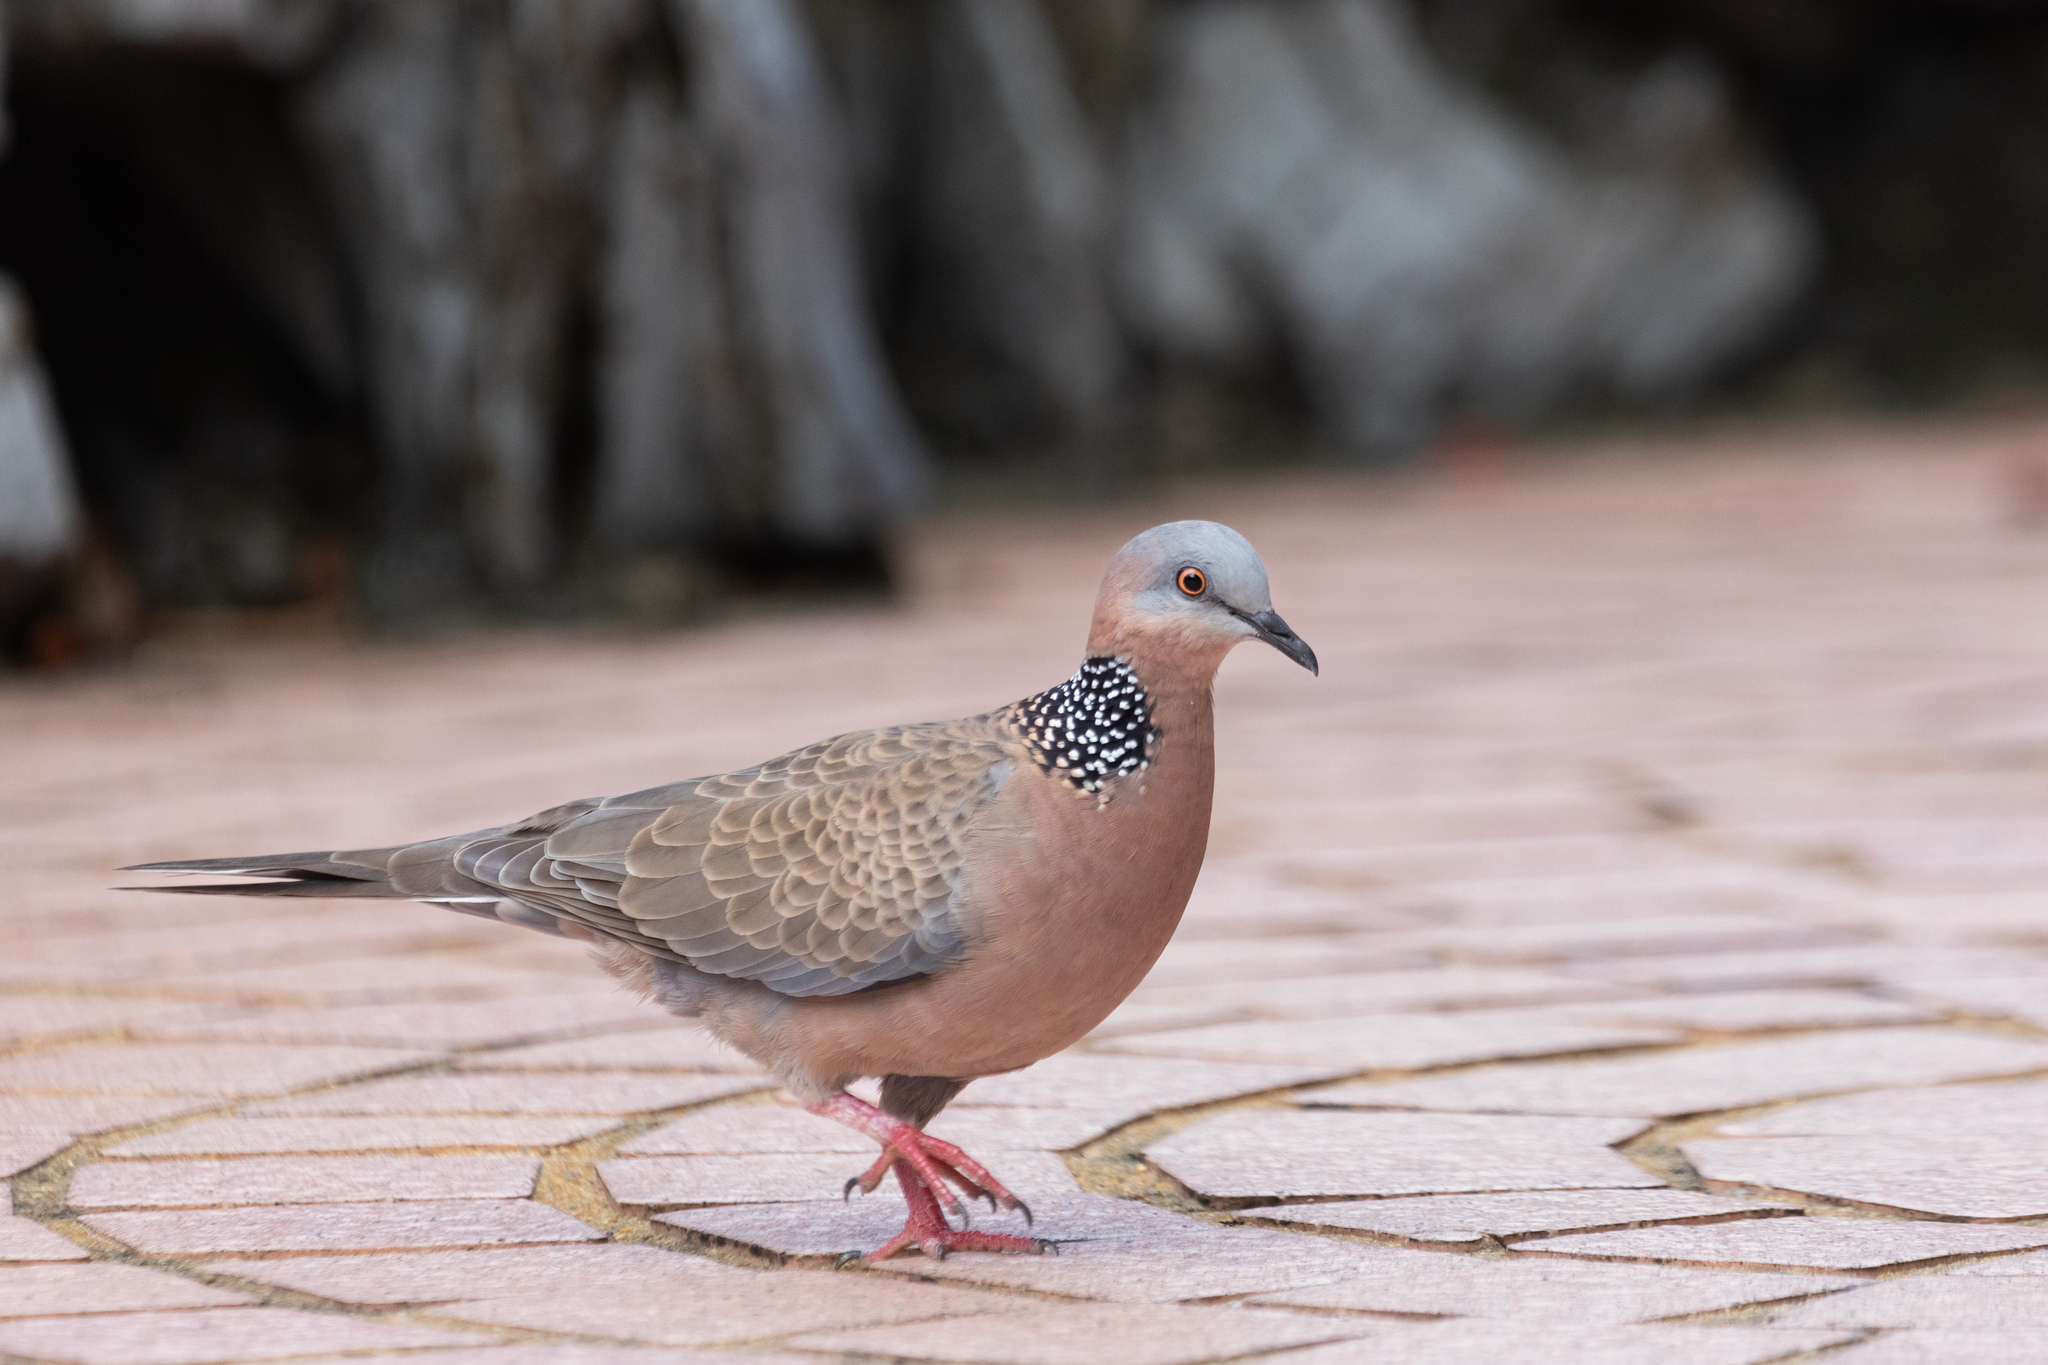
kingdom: Animalia
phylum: Chordata
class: Aves
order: Columbiformes
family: Columbidae
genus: Spilopelia
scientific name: Spilopelia chinensis
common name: Spotted dove
